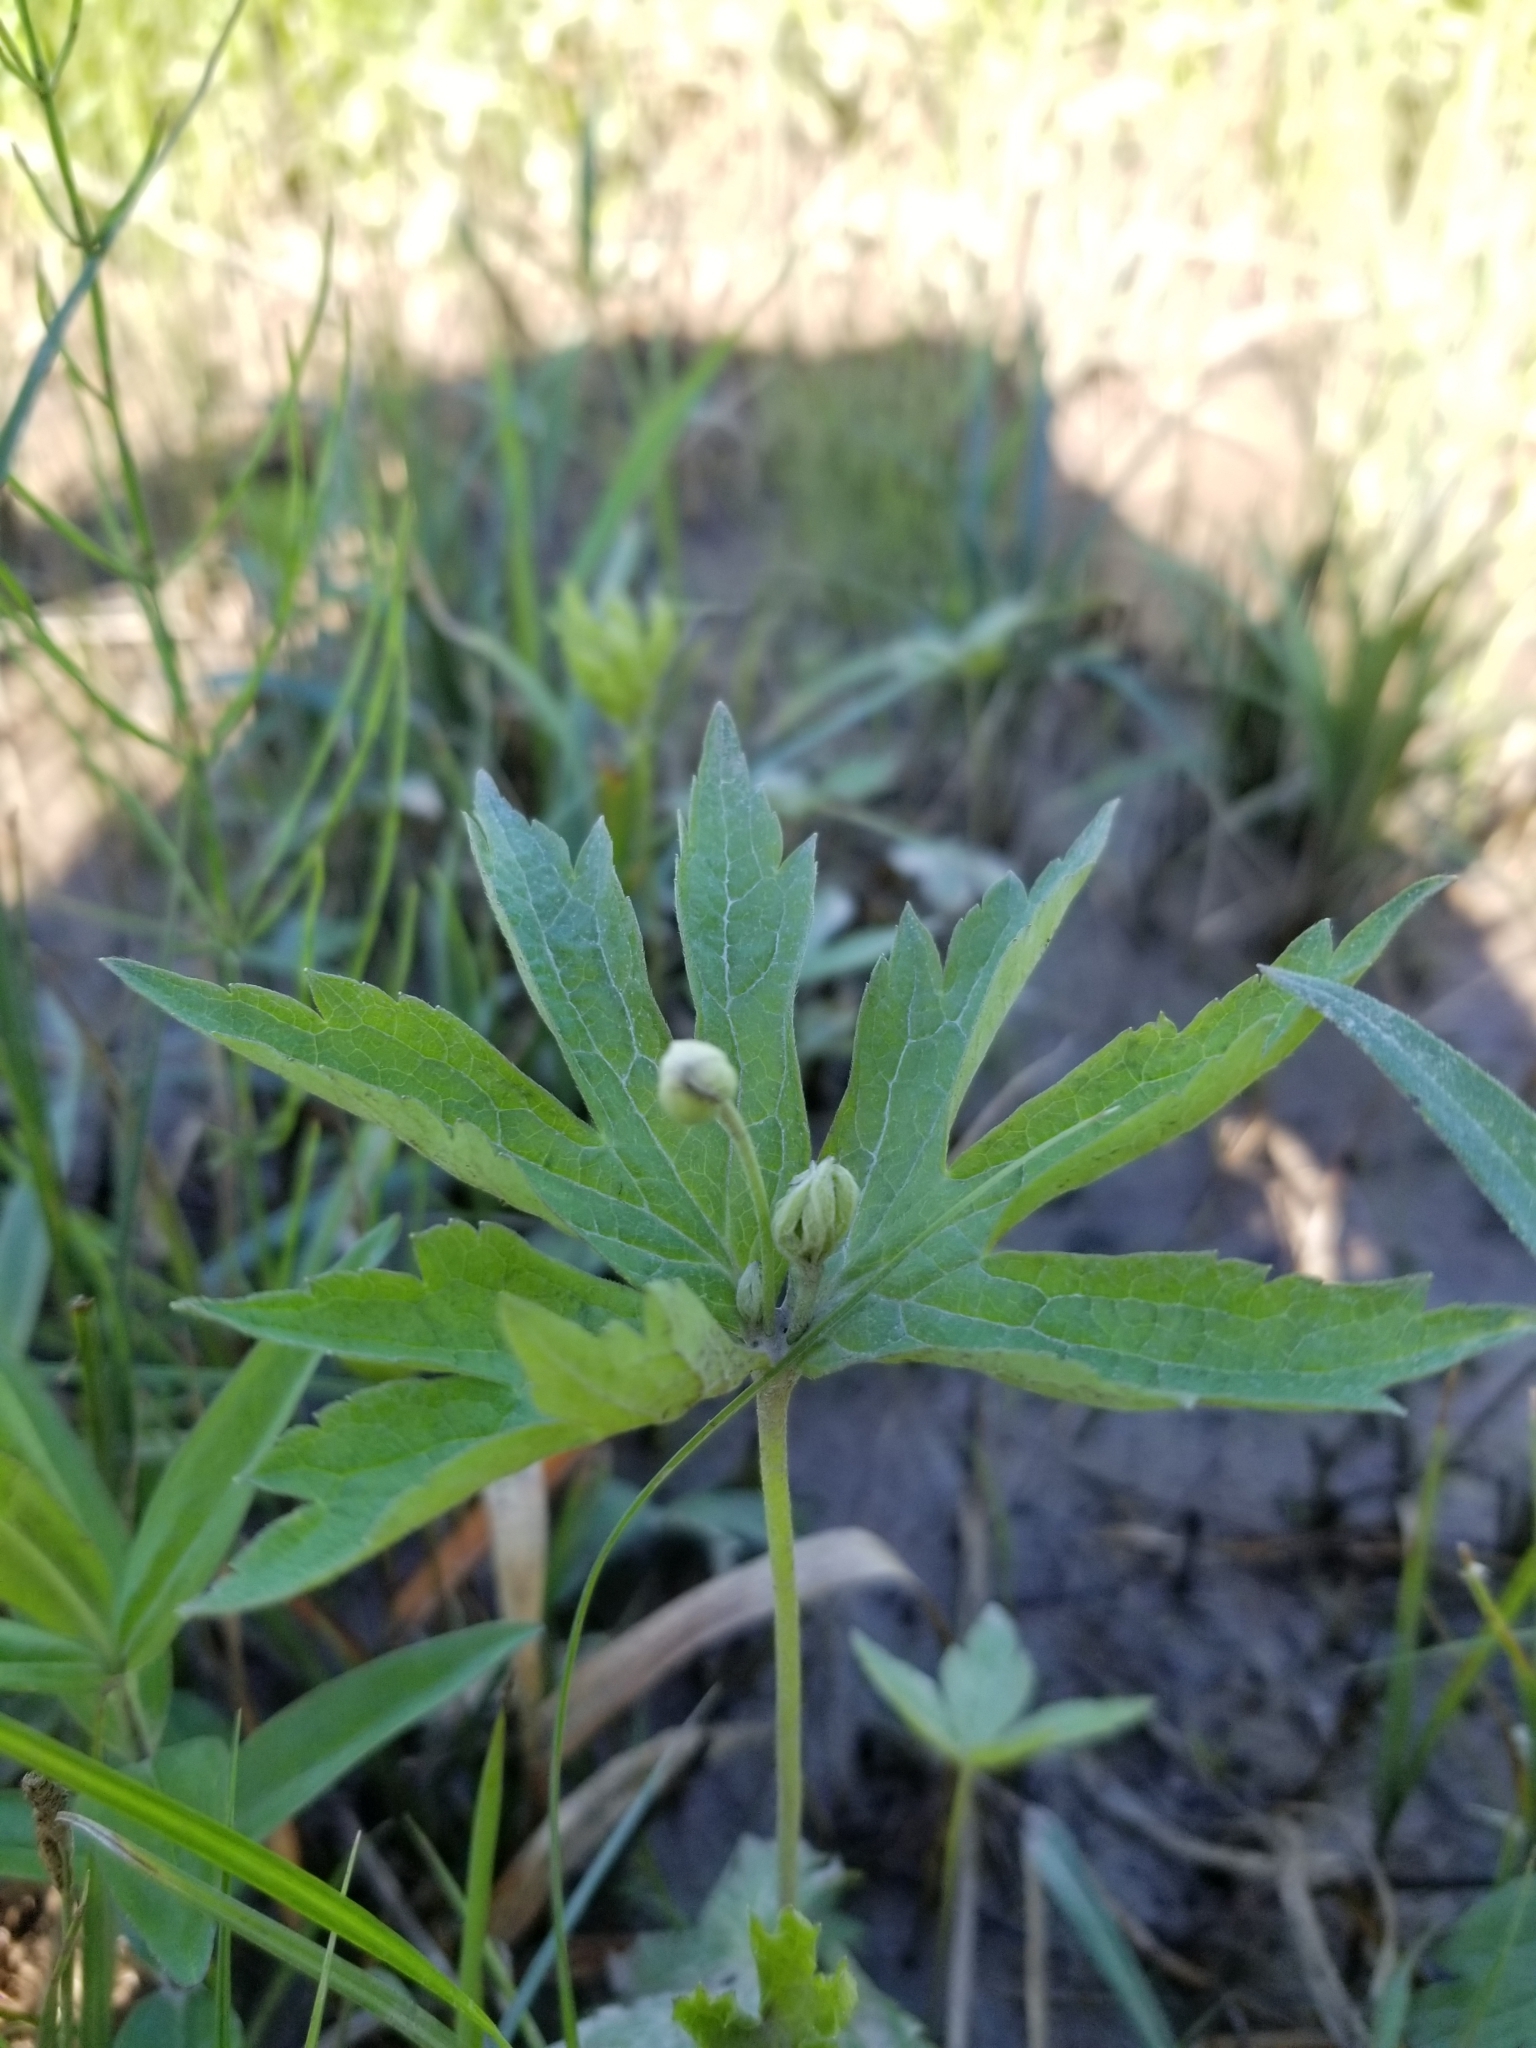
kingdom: Plantae
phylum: Tracheophyta
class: Magnoliopsida
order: Ranunculales
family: Ranunculaceae
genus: Anemonastrum
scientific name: Anemonastrum canadense
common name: Canada anemone
